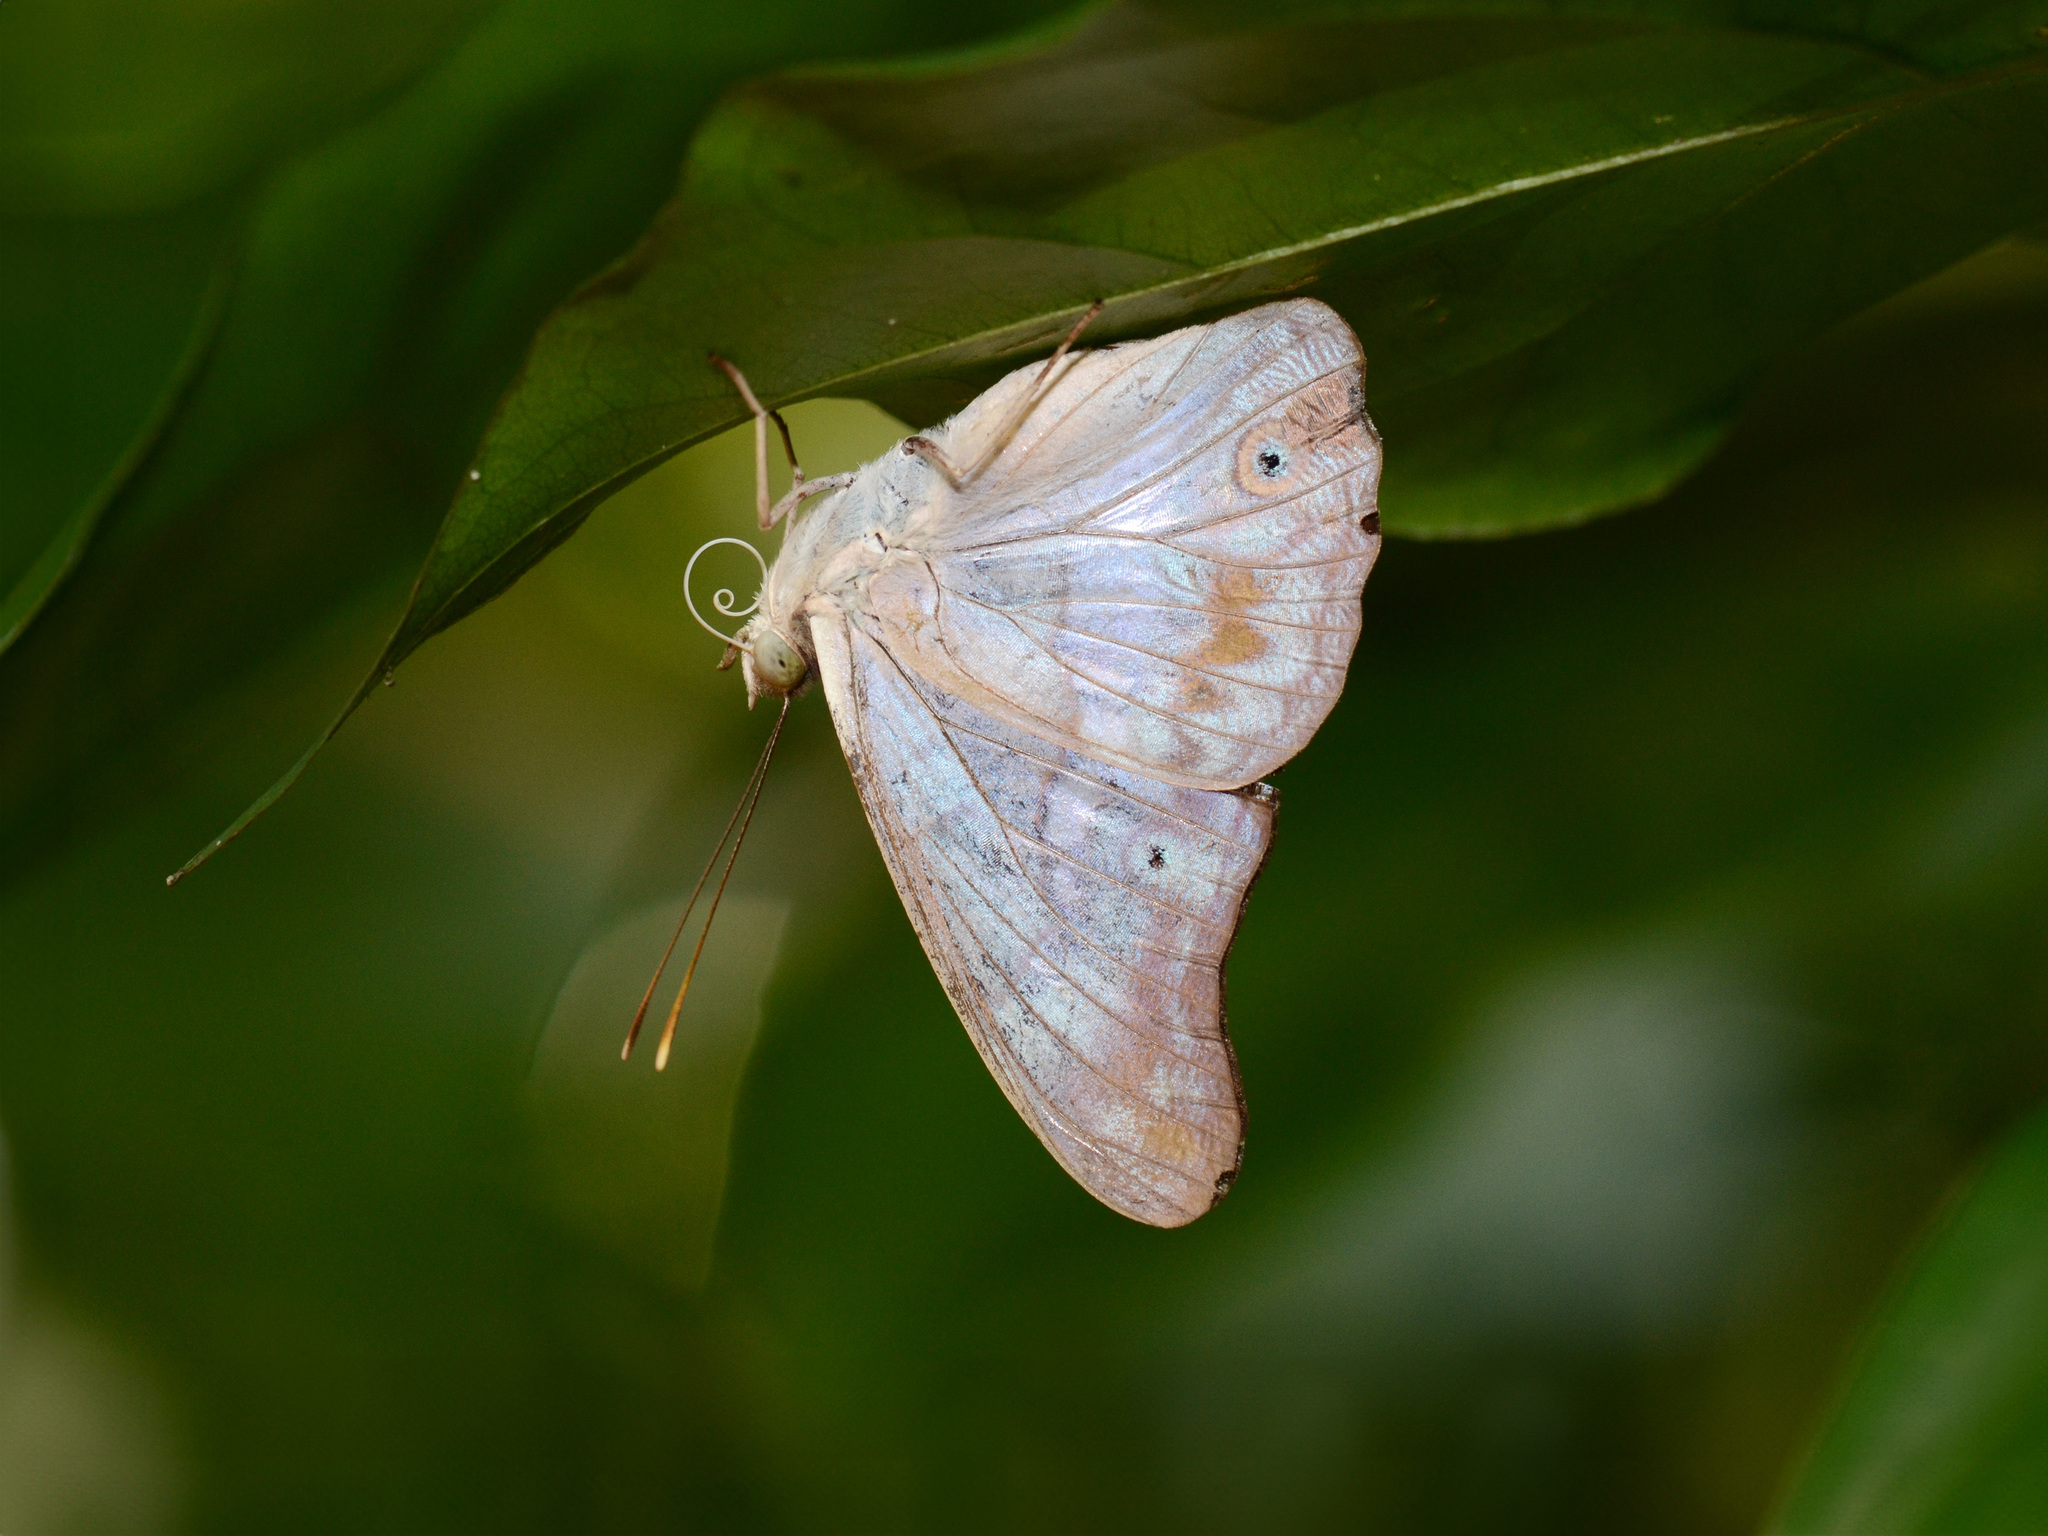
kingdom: Animalia
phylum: Arthropoda
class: Insecta
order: Lepidoptera
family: Nymphalidae
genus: Eulaceura
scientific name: Eulaceura osteria
